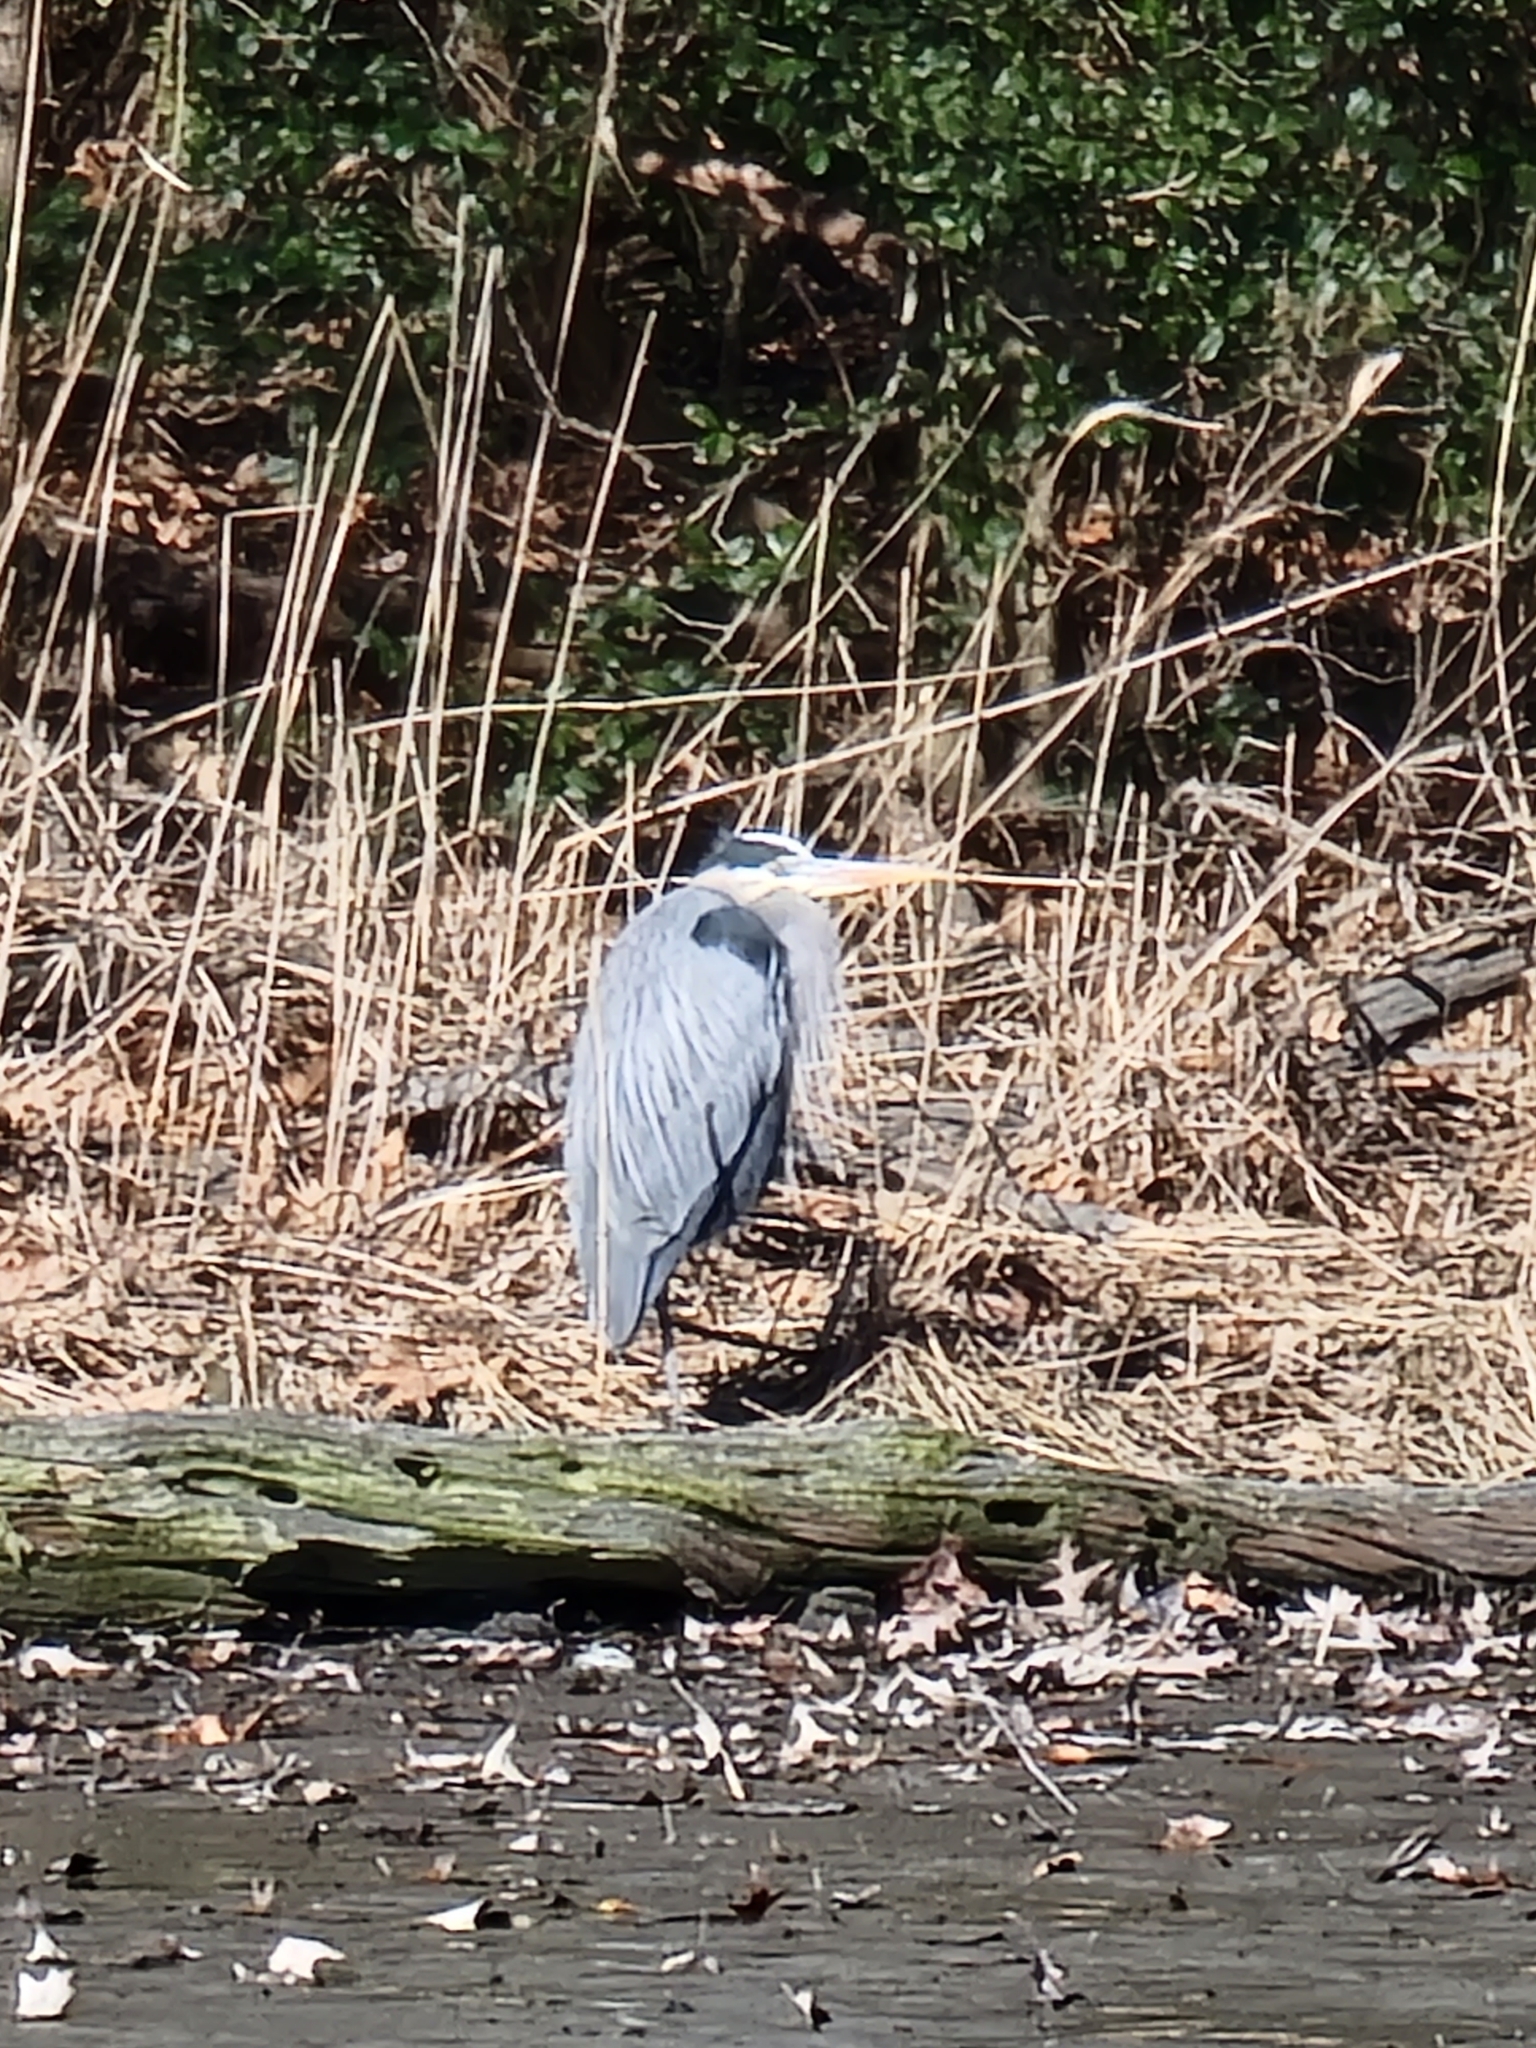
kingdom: Animalia
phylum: Chordata
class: Aves
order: Pelecaniformes
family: Ardeidae
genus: Ardea
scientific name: Ardea herodias
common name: Great blue heron
